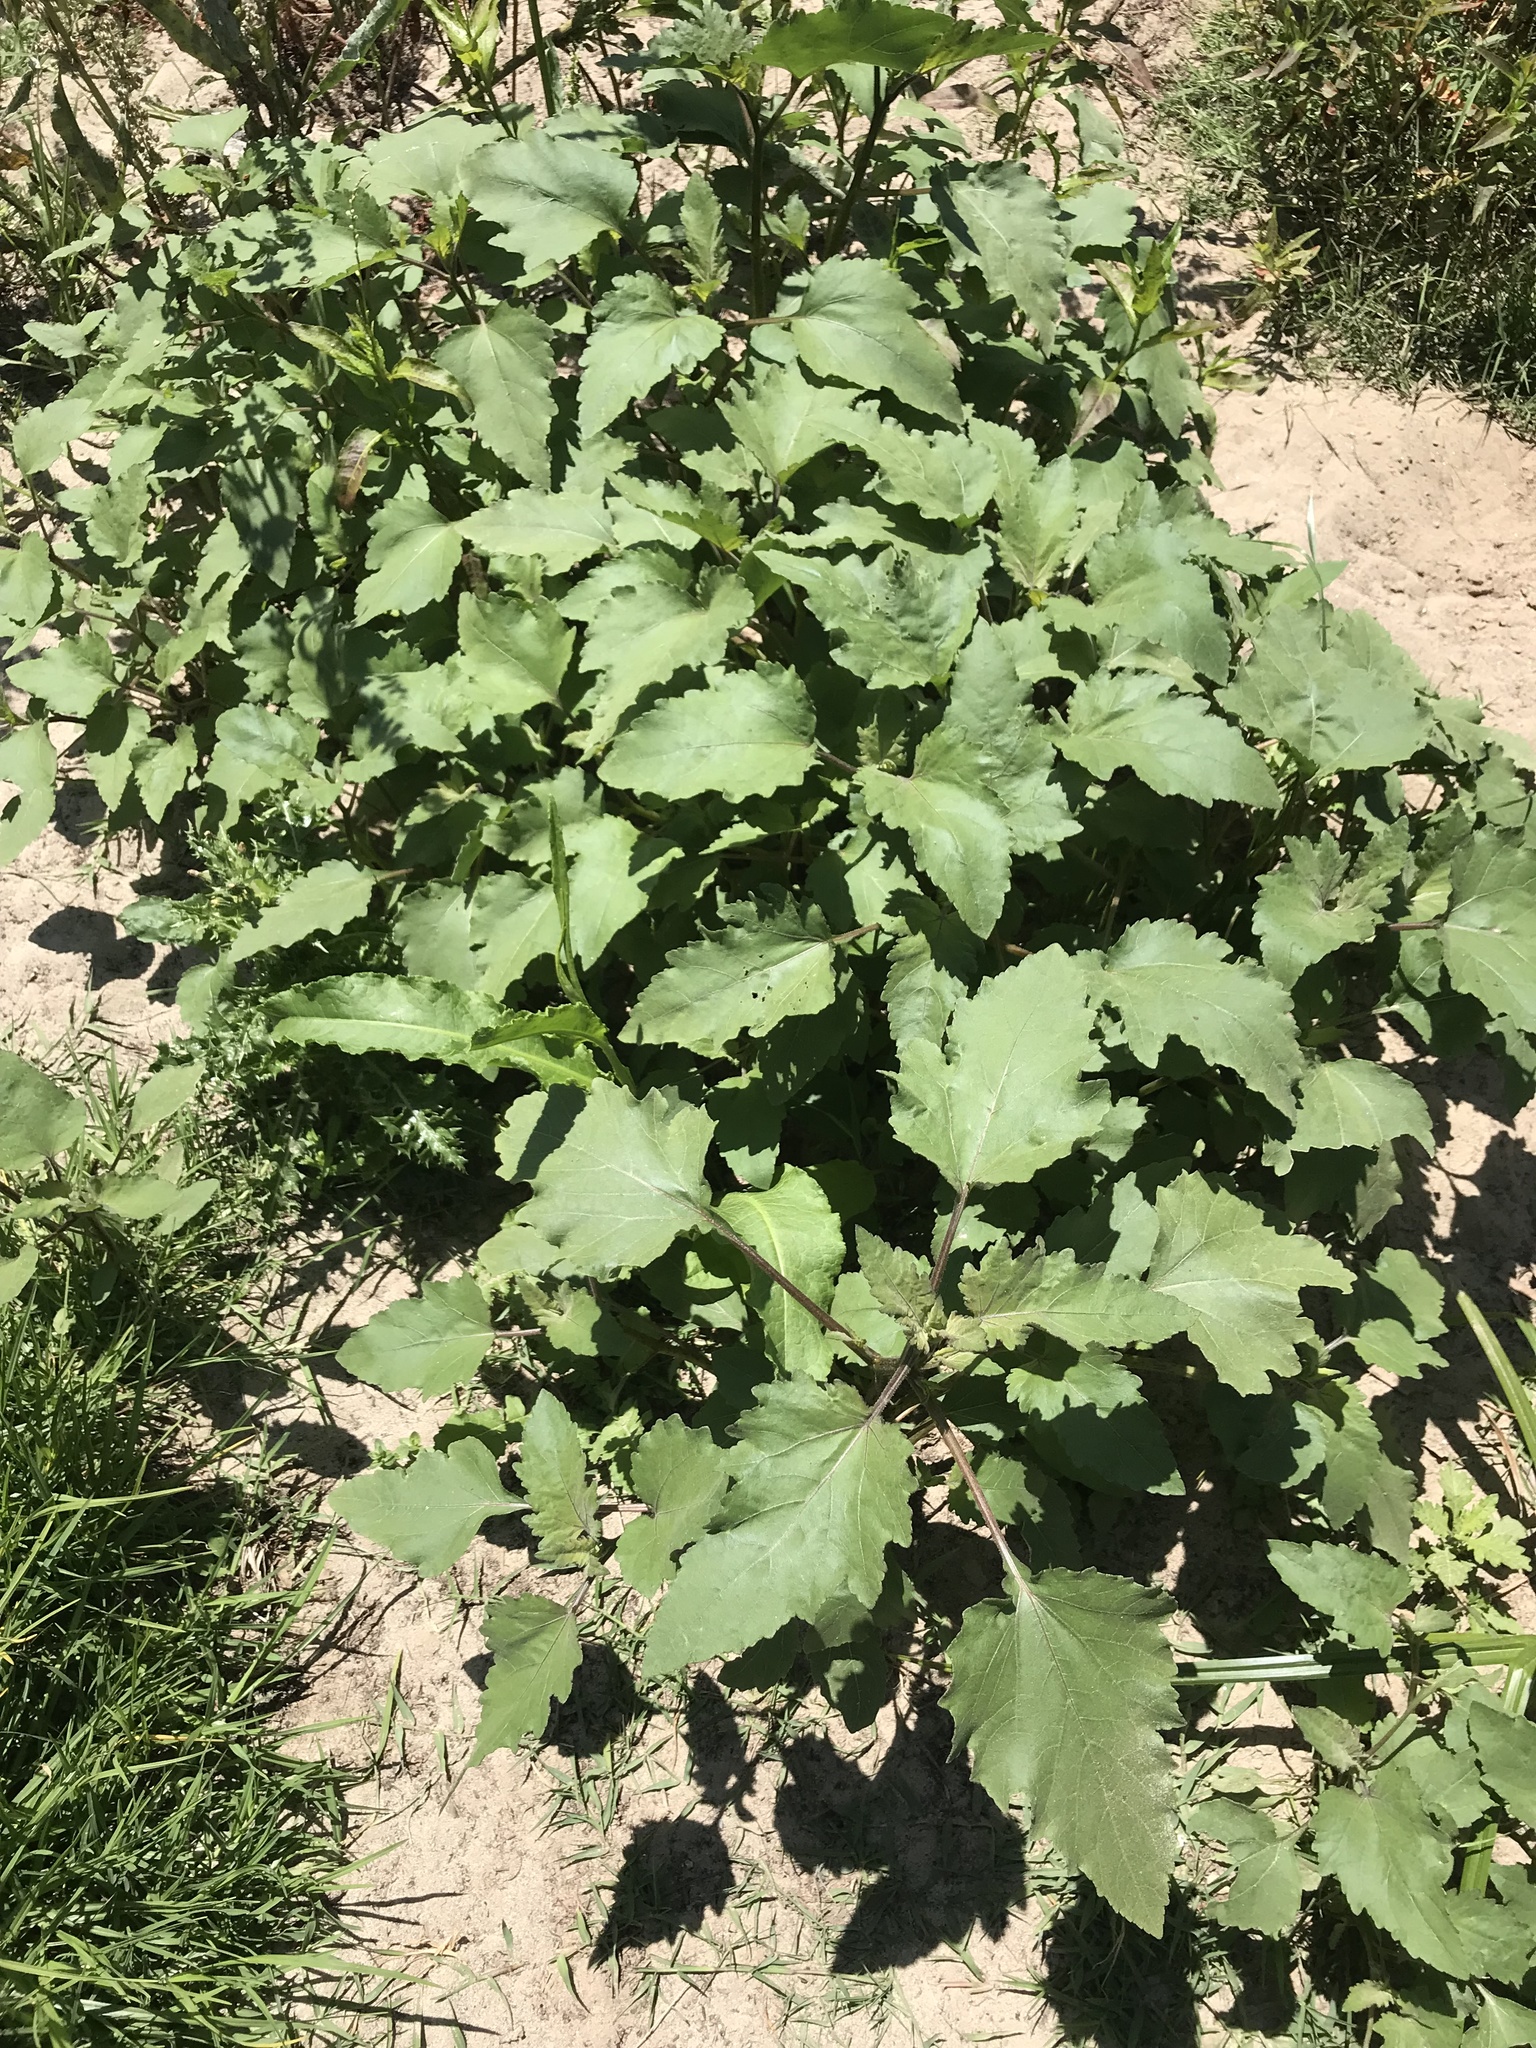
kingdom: Plantae
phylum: Tracheophyta
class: Magnoliopsida
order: Asterales
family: Asteraceae
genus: Xanthium
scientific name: Xanthium strumarium
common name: Rough cocklebur
